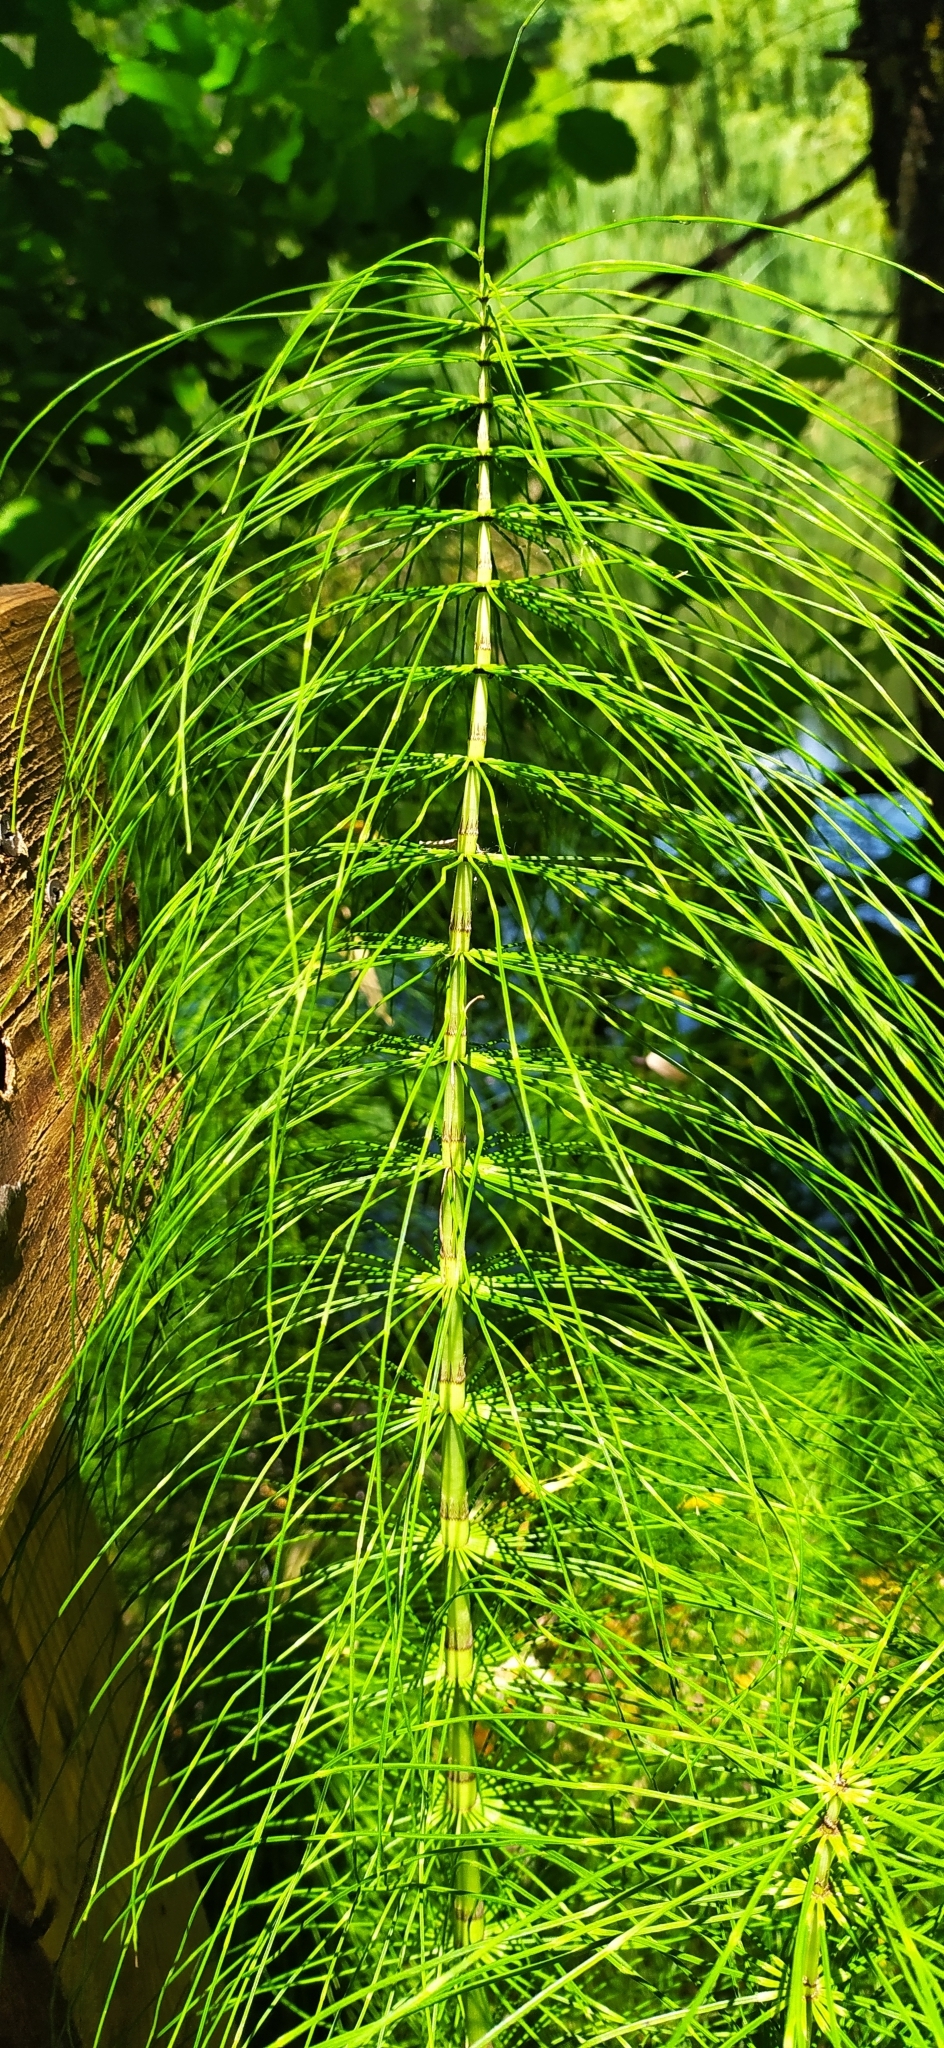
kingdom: Plantae
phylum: Tracheophyta
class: Polypodiopsida
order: Equisetales
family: Equisetaceae
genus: Equisetum
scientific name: Equisetum telmateia
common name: Great horsetail
